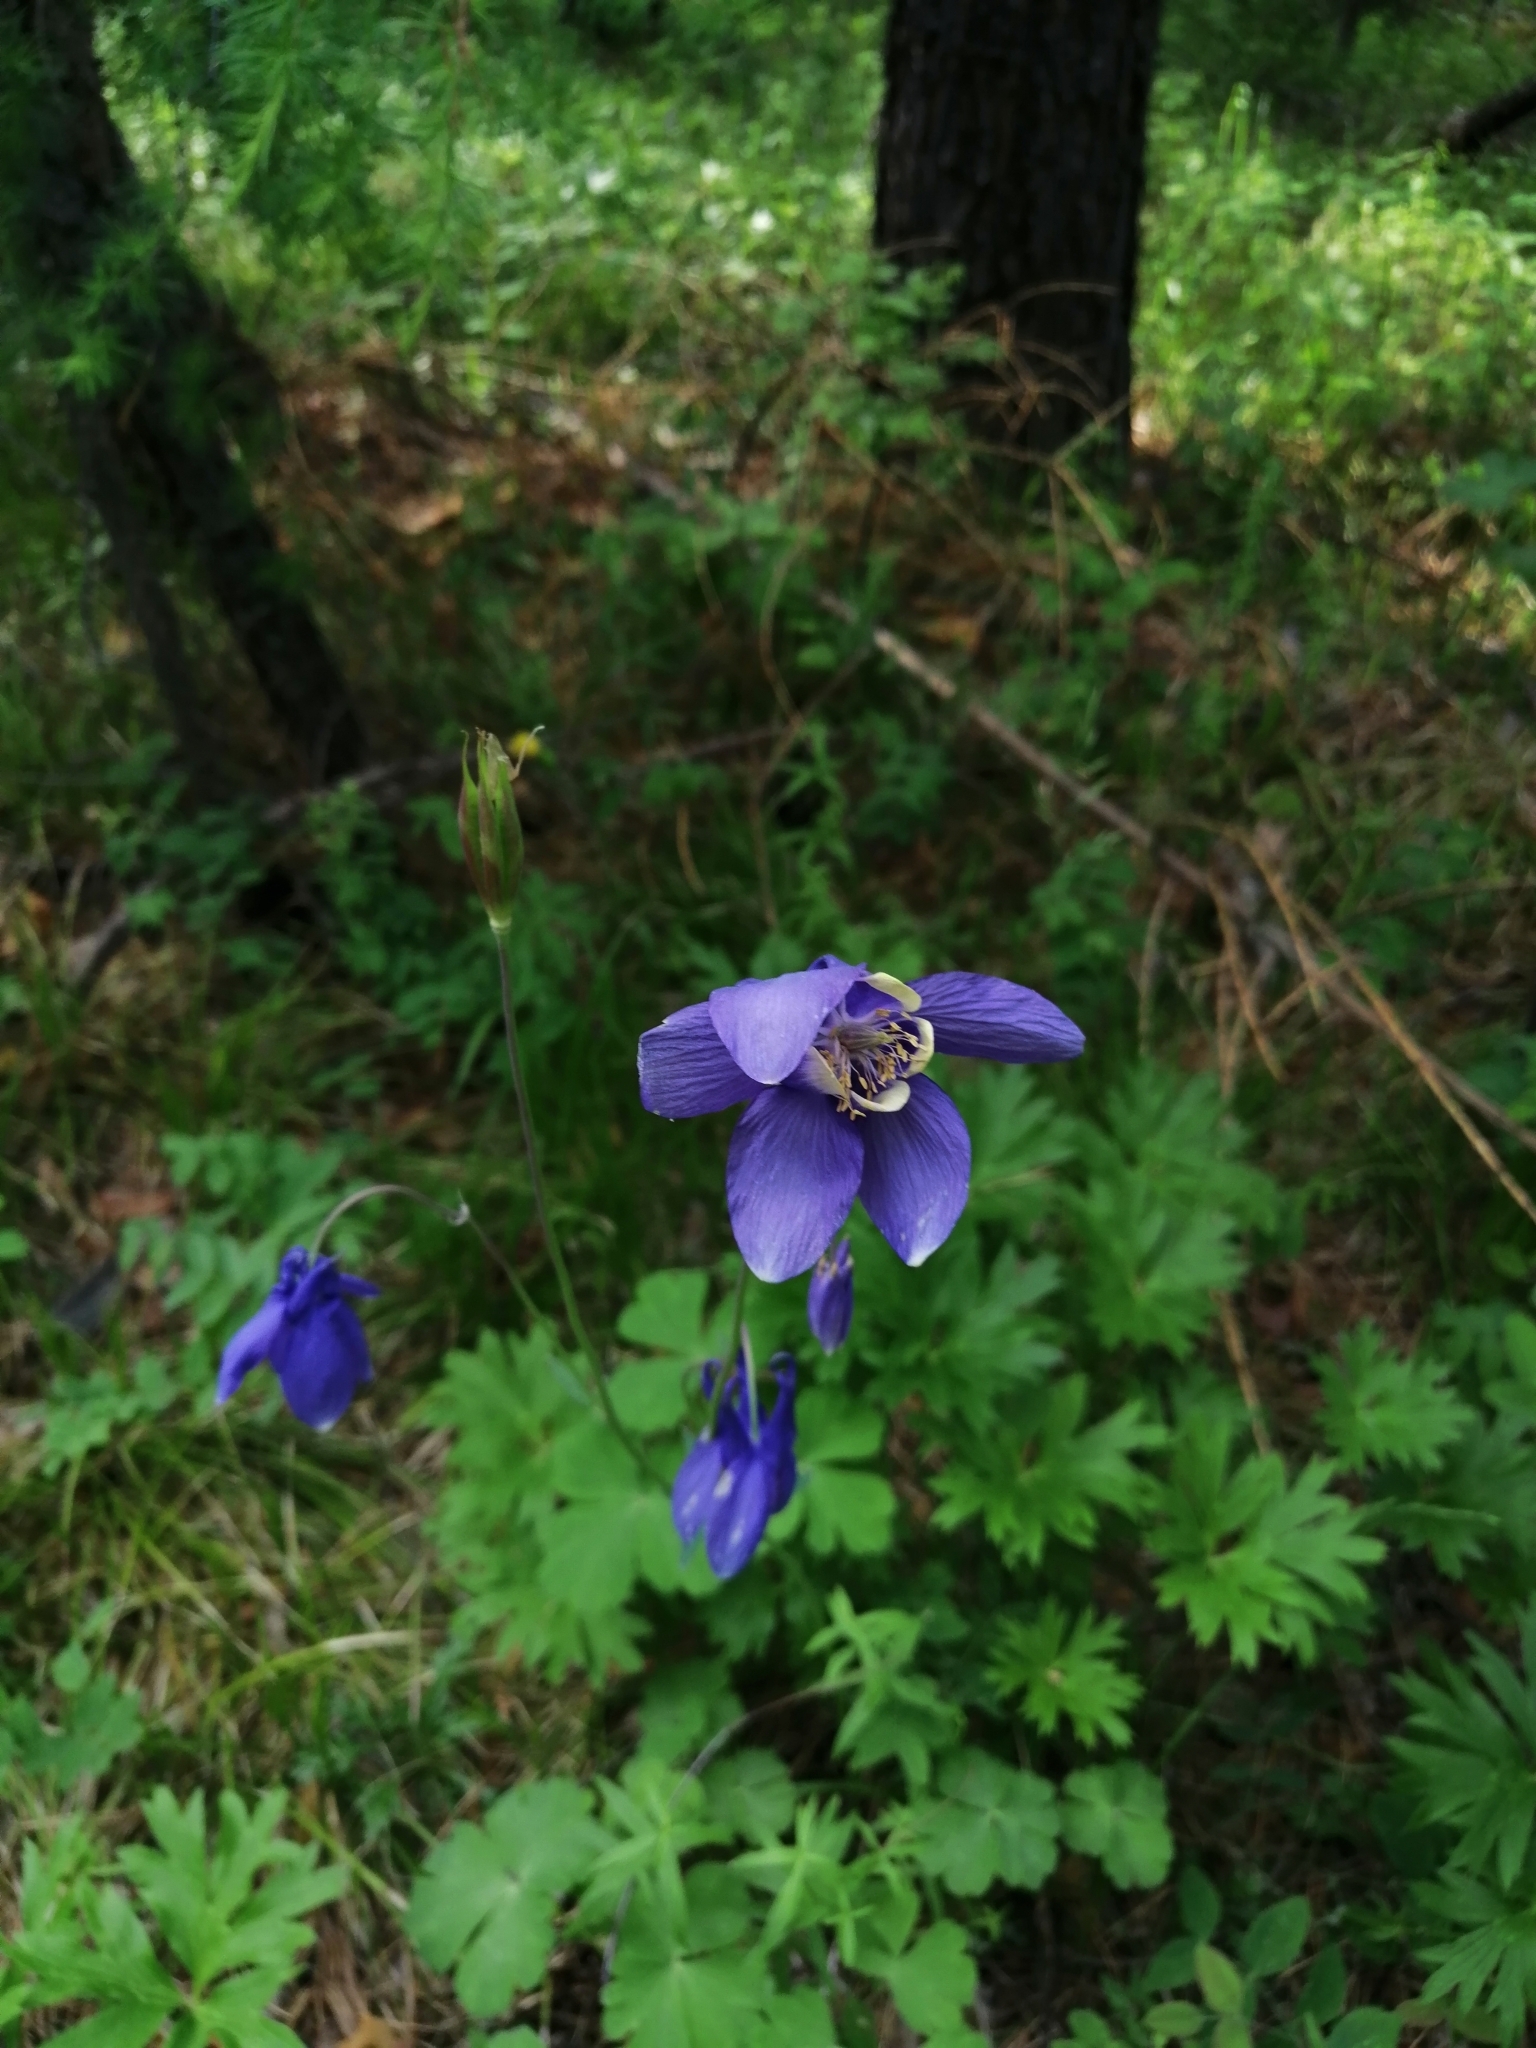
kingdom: Plantae
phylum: Tracheophyta
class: Magnoliopsida
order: Ranunculales
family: Ranunculaceae
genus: Aquilegia
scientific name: Aquilegia sibirica
